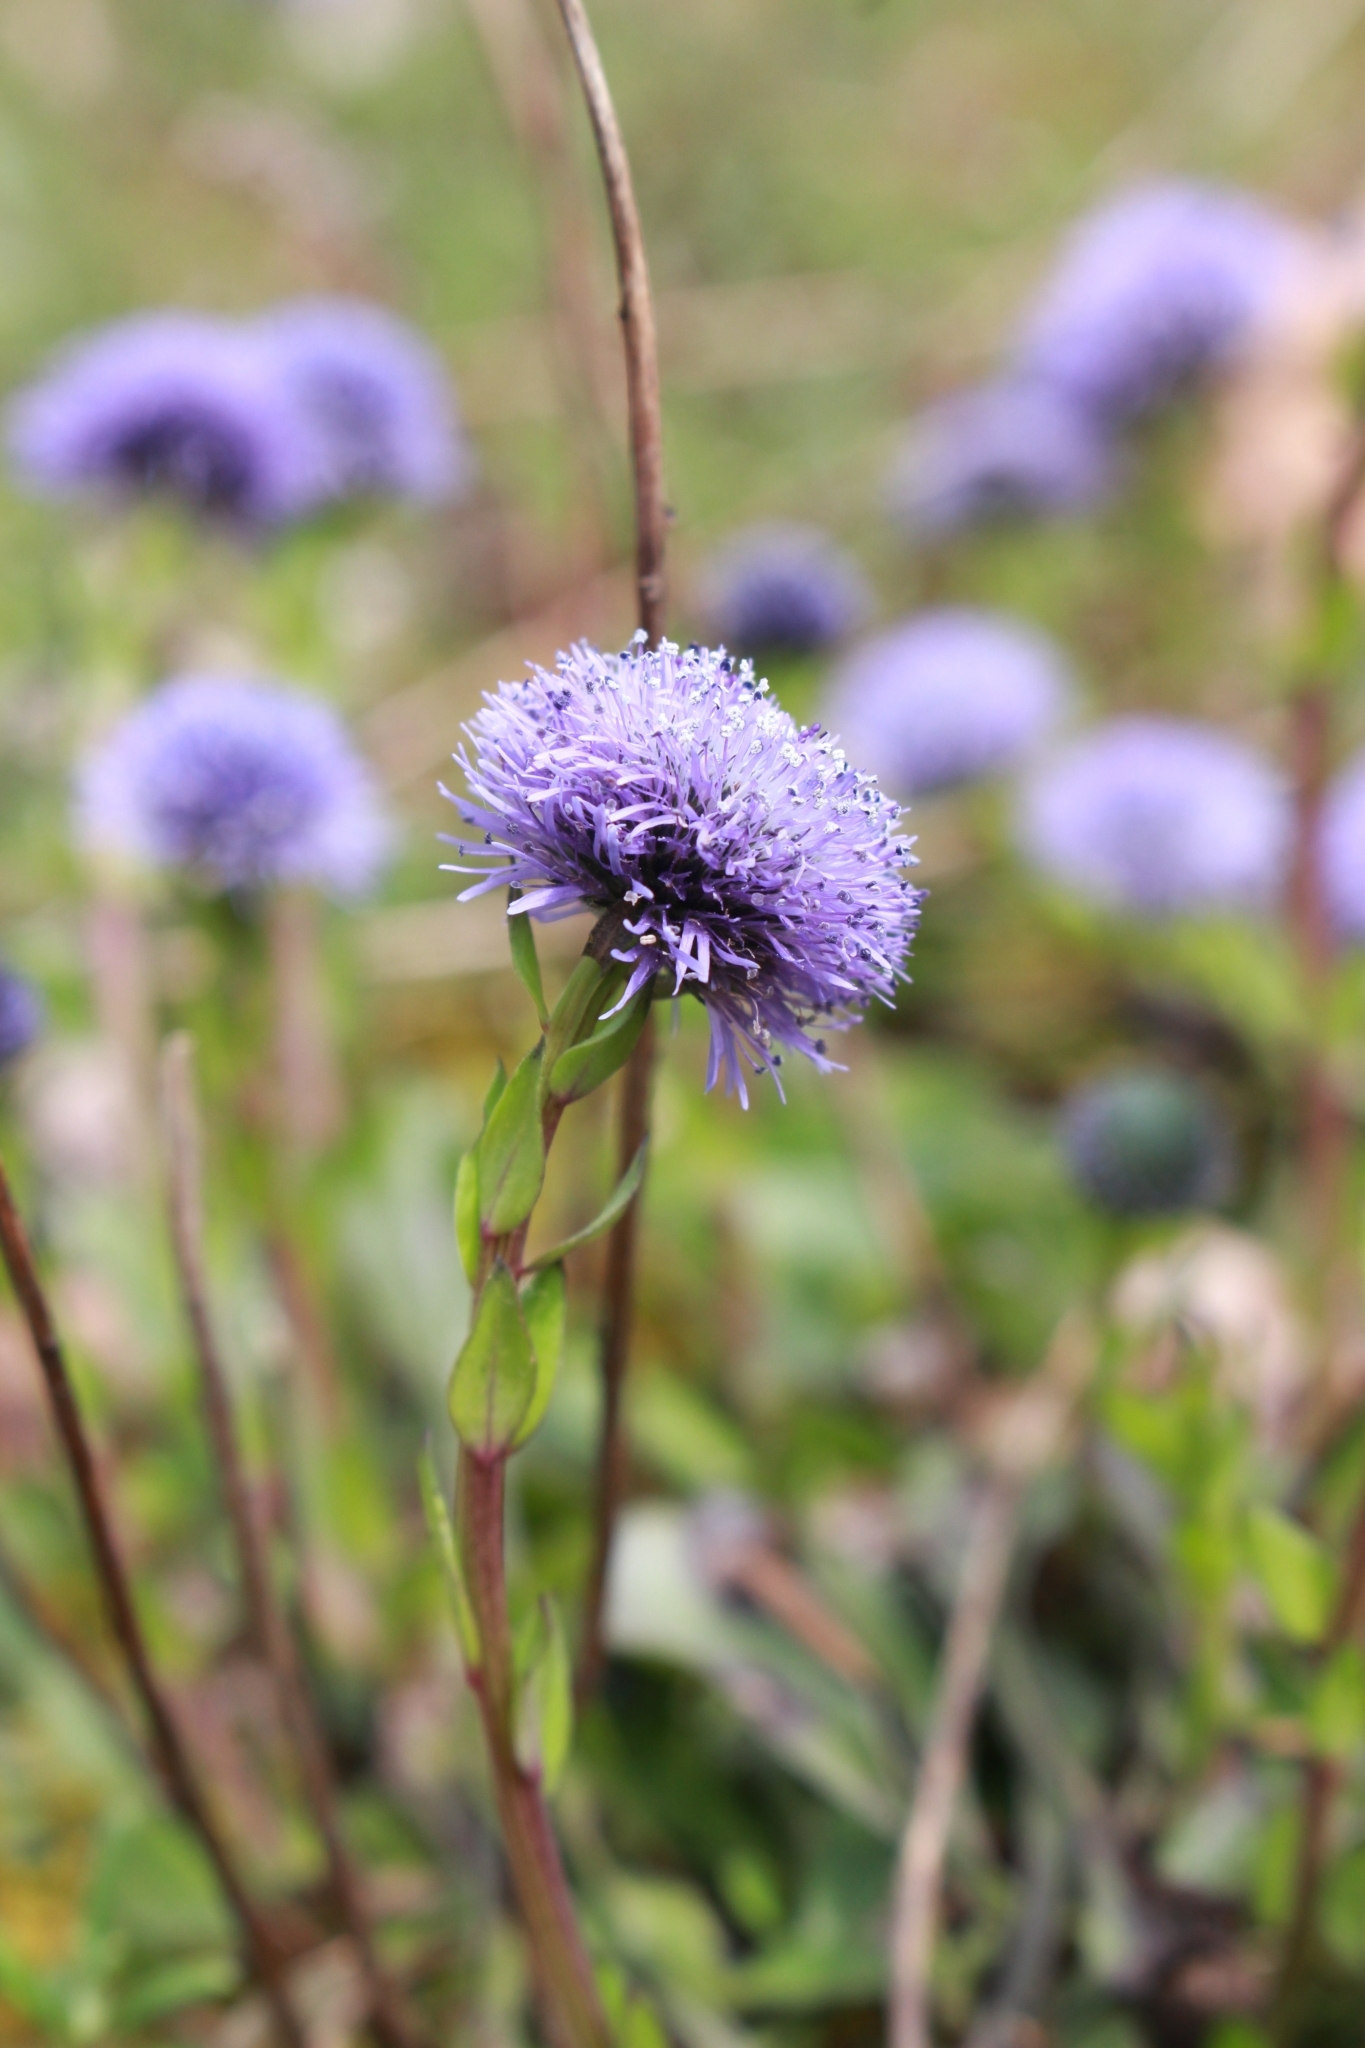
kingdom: Plantae
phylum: Tracheophyta
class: Magnoliopsida
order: Lamiales
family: Plantaginaceae
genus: Globularia
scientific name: Globularia bisnagarica
